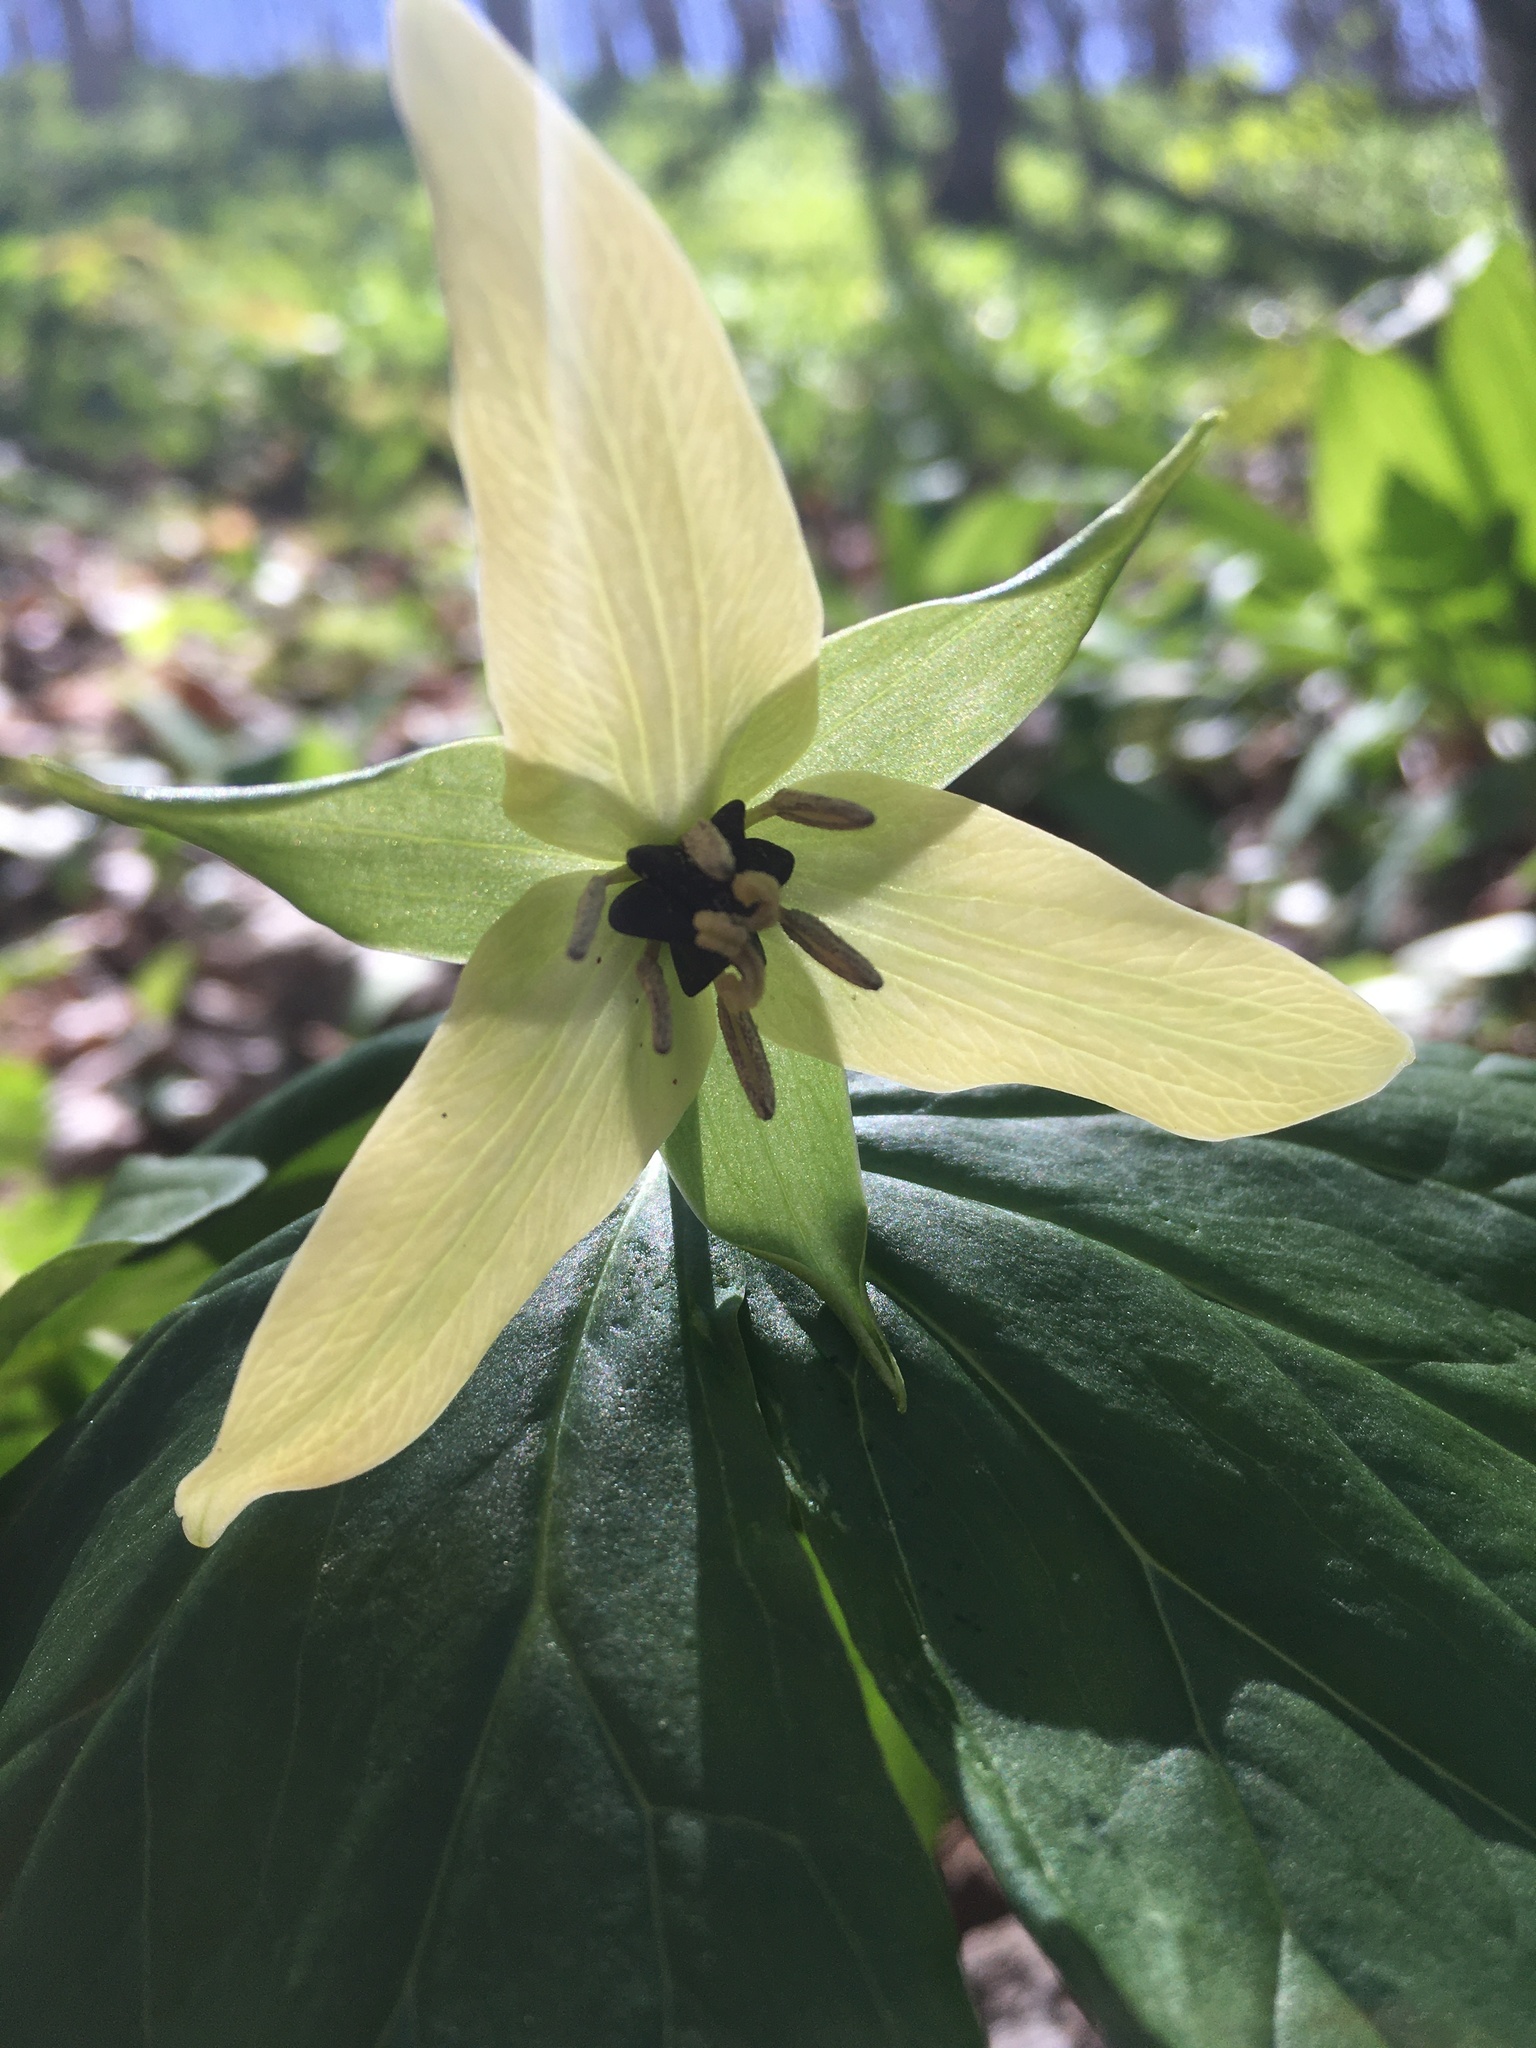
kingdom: Plantae
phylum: Tracheophyta
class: Liliopsida
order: Liliales
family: Melanthiaceae
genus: Trillium
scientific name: Trillium erectum
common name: Purple trillium
